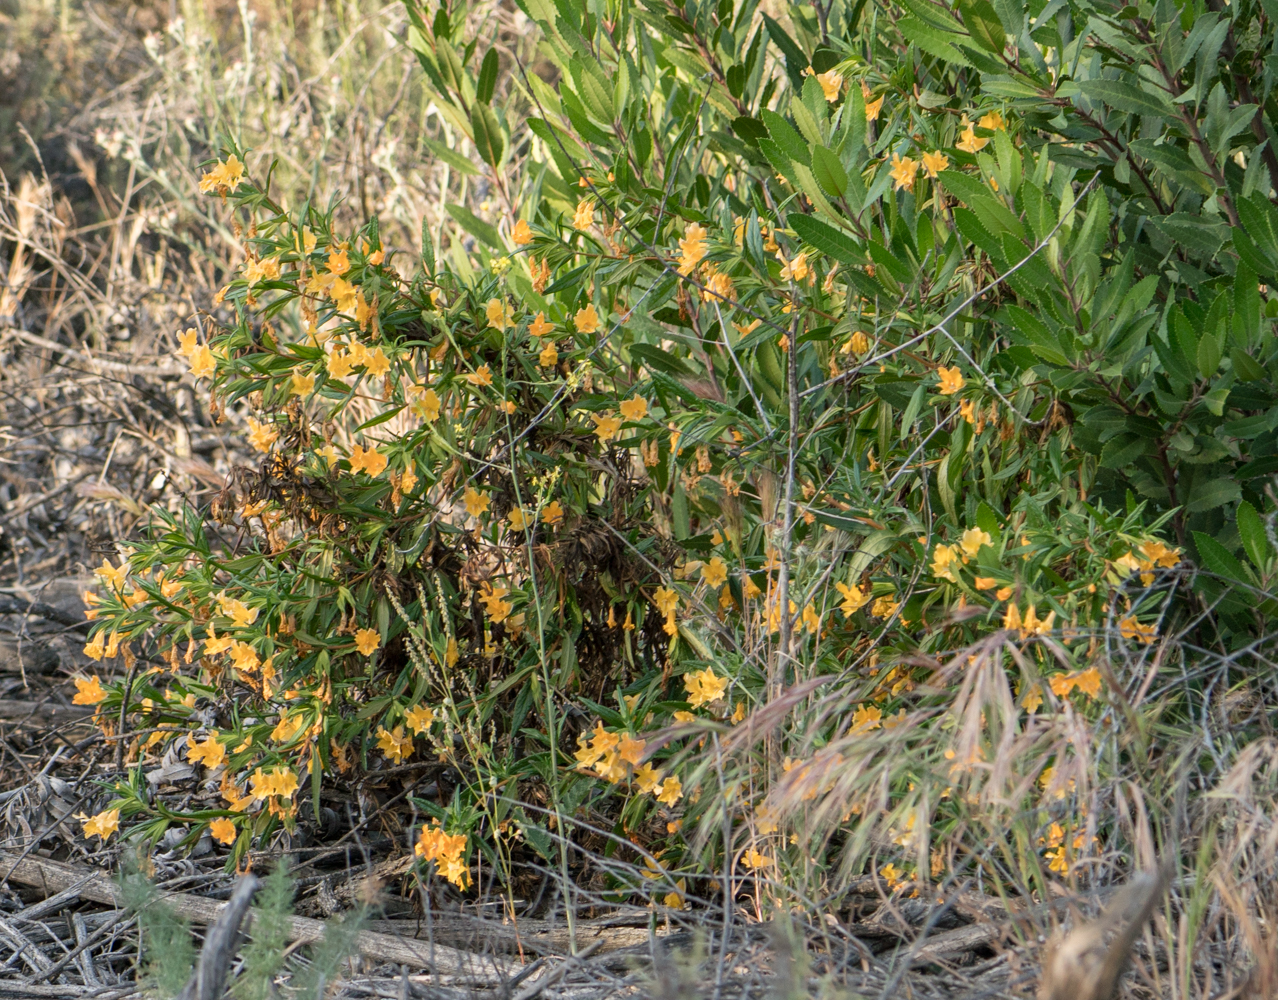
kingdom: Plantae
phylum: Tracheophyta
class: Magnoliopsida
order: Lamiales
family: Phrymaceae
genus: Diplacus
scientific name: Diplacus longiflorus
